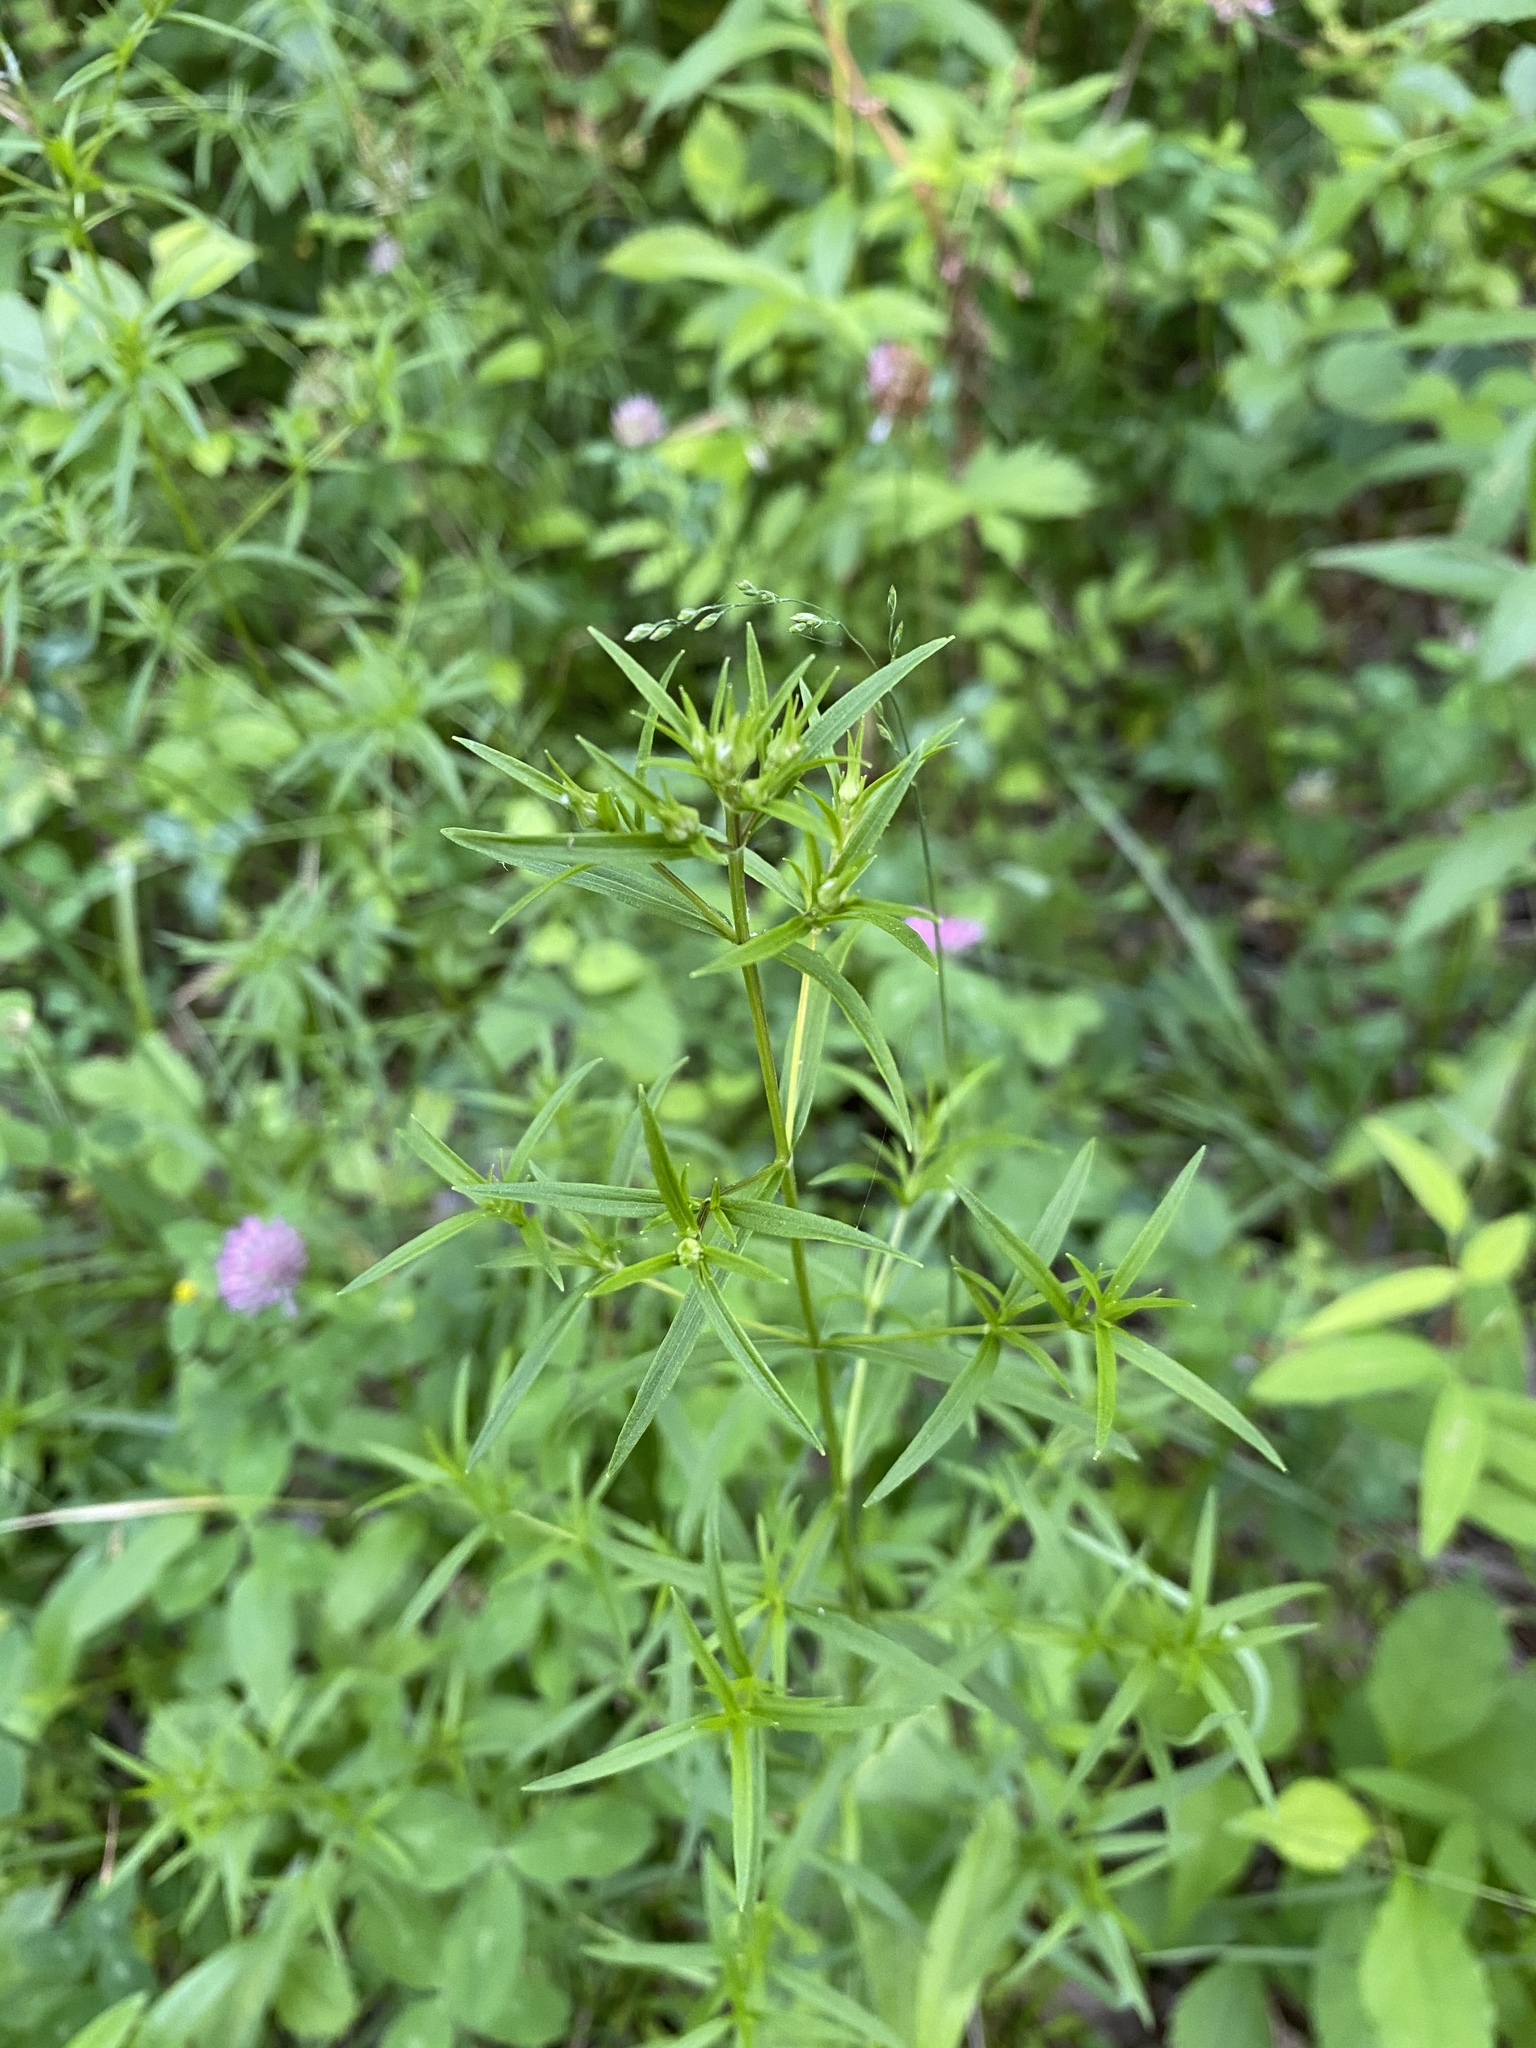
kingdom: Plantae
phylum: Tracheophyta
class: Magnoliopsida
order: Lamiales
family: Lamiaceae
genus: Pycnanthemum
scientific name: Pycnanthemum tenuifolium
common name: Narrow-leaf mountain-mint
